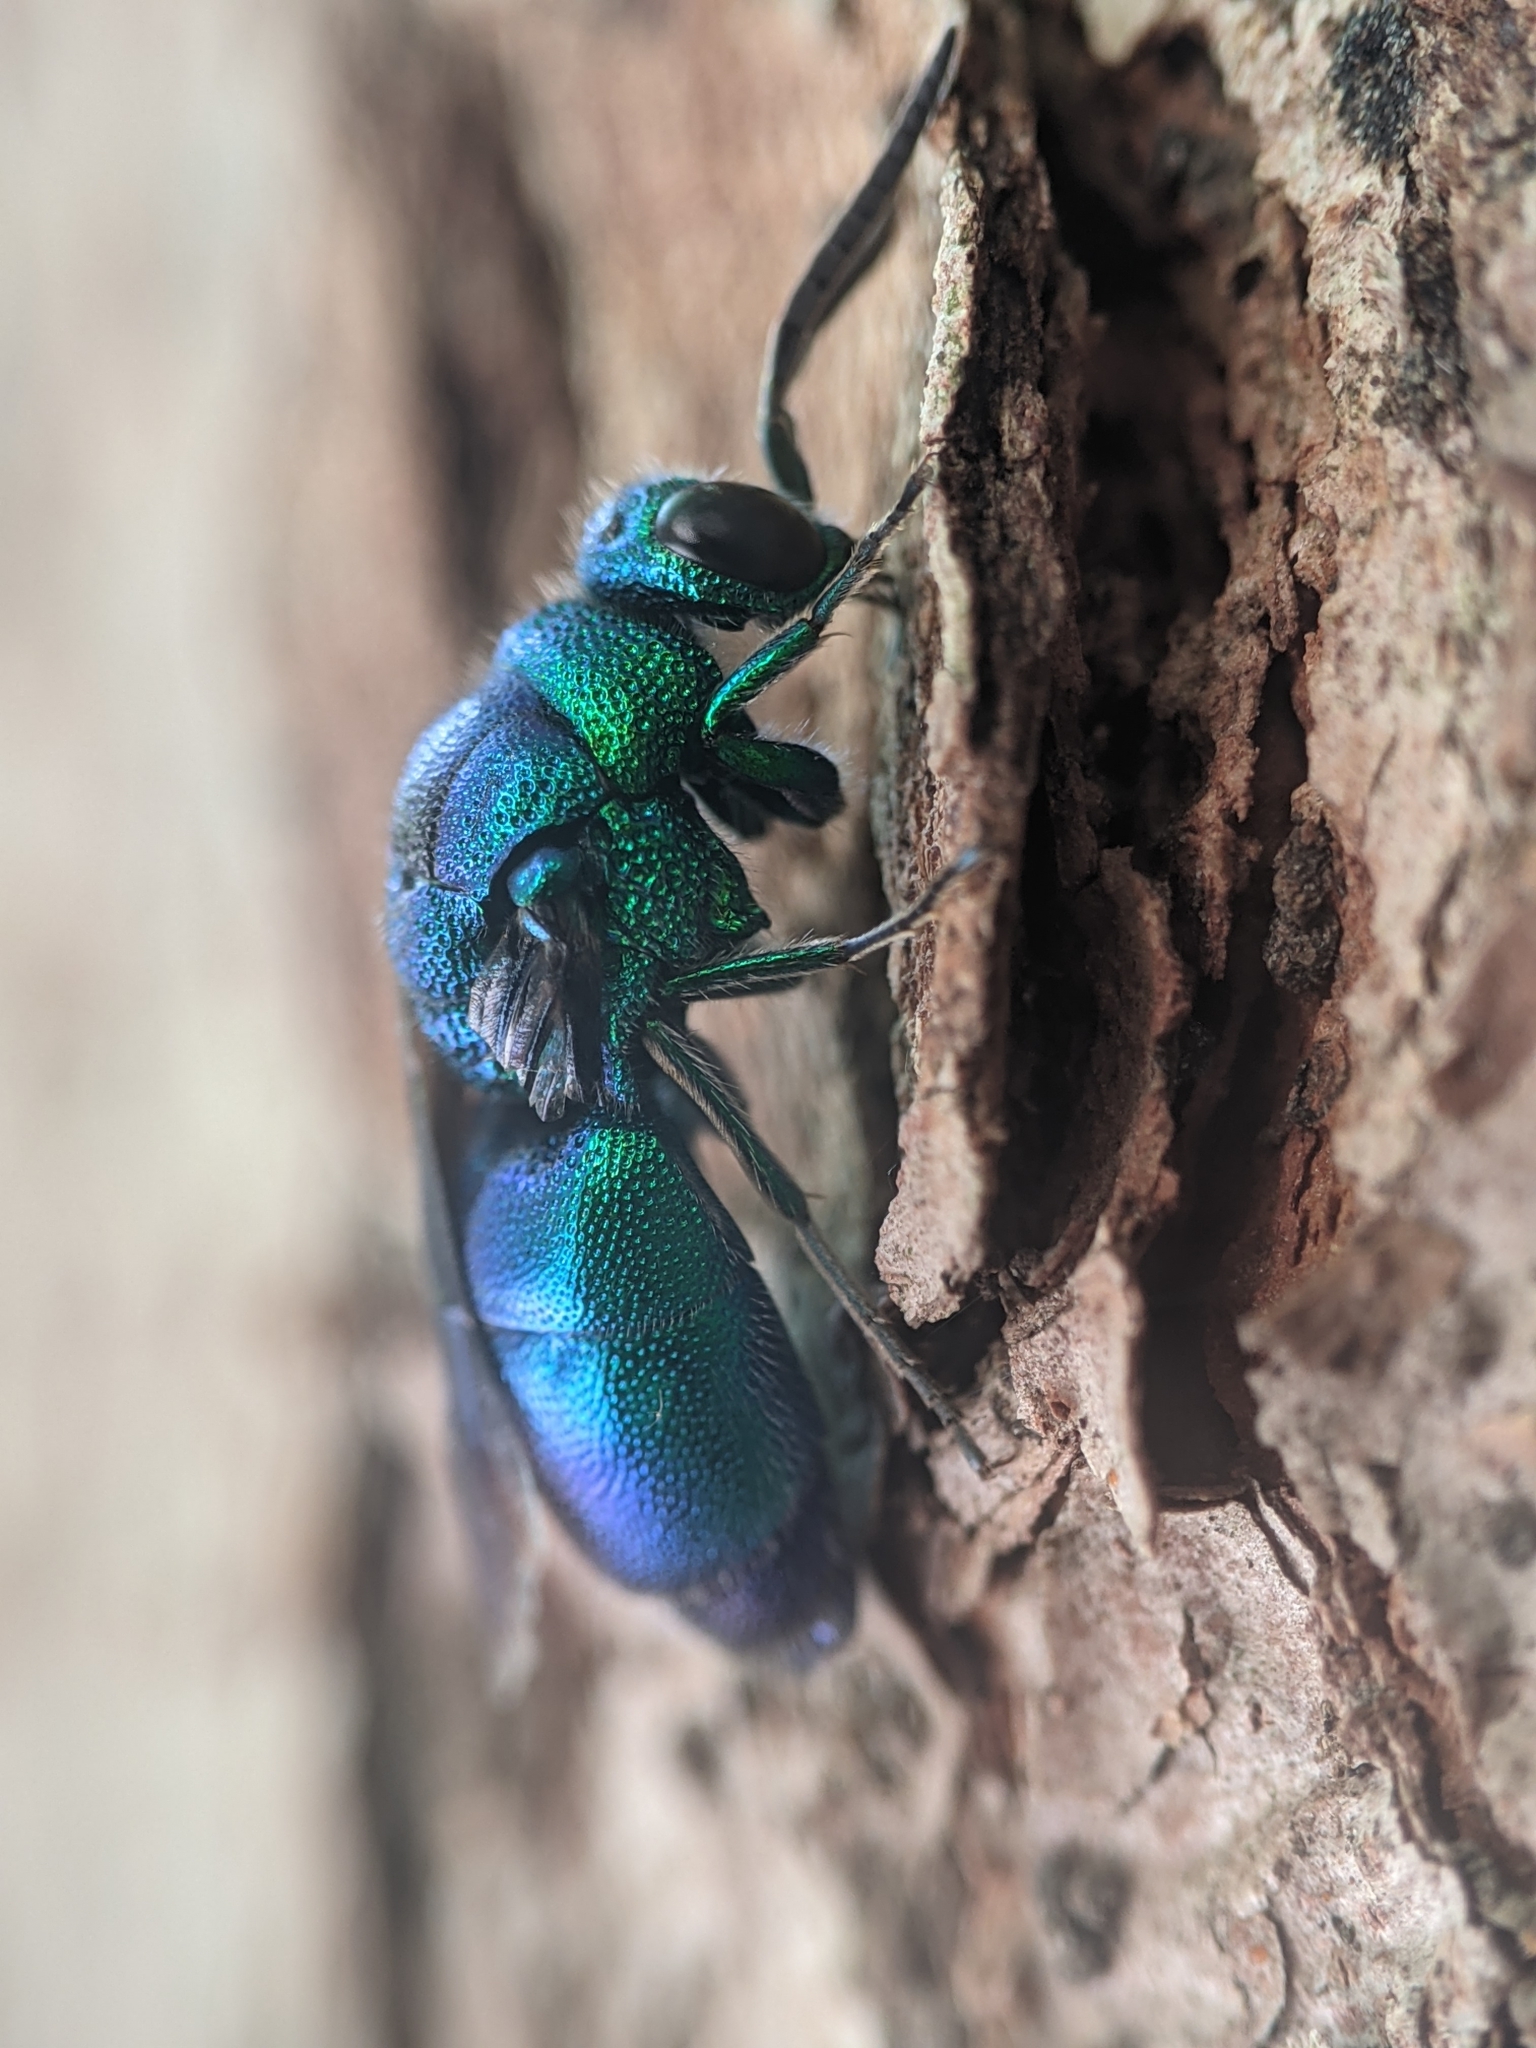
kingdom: Animalia
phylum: Arthropoda
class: Insecta
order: Hymenoptera
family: Chrysididae
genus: Chrysis
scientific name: Chrysis angolensis
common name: Cuckoo wasp
